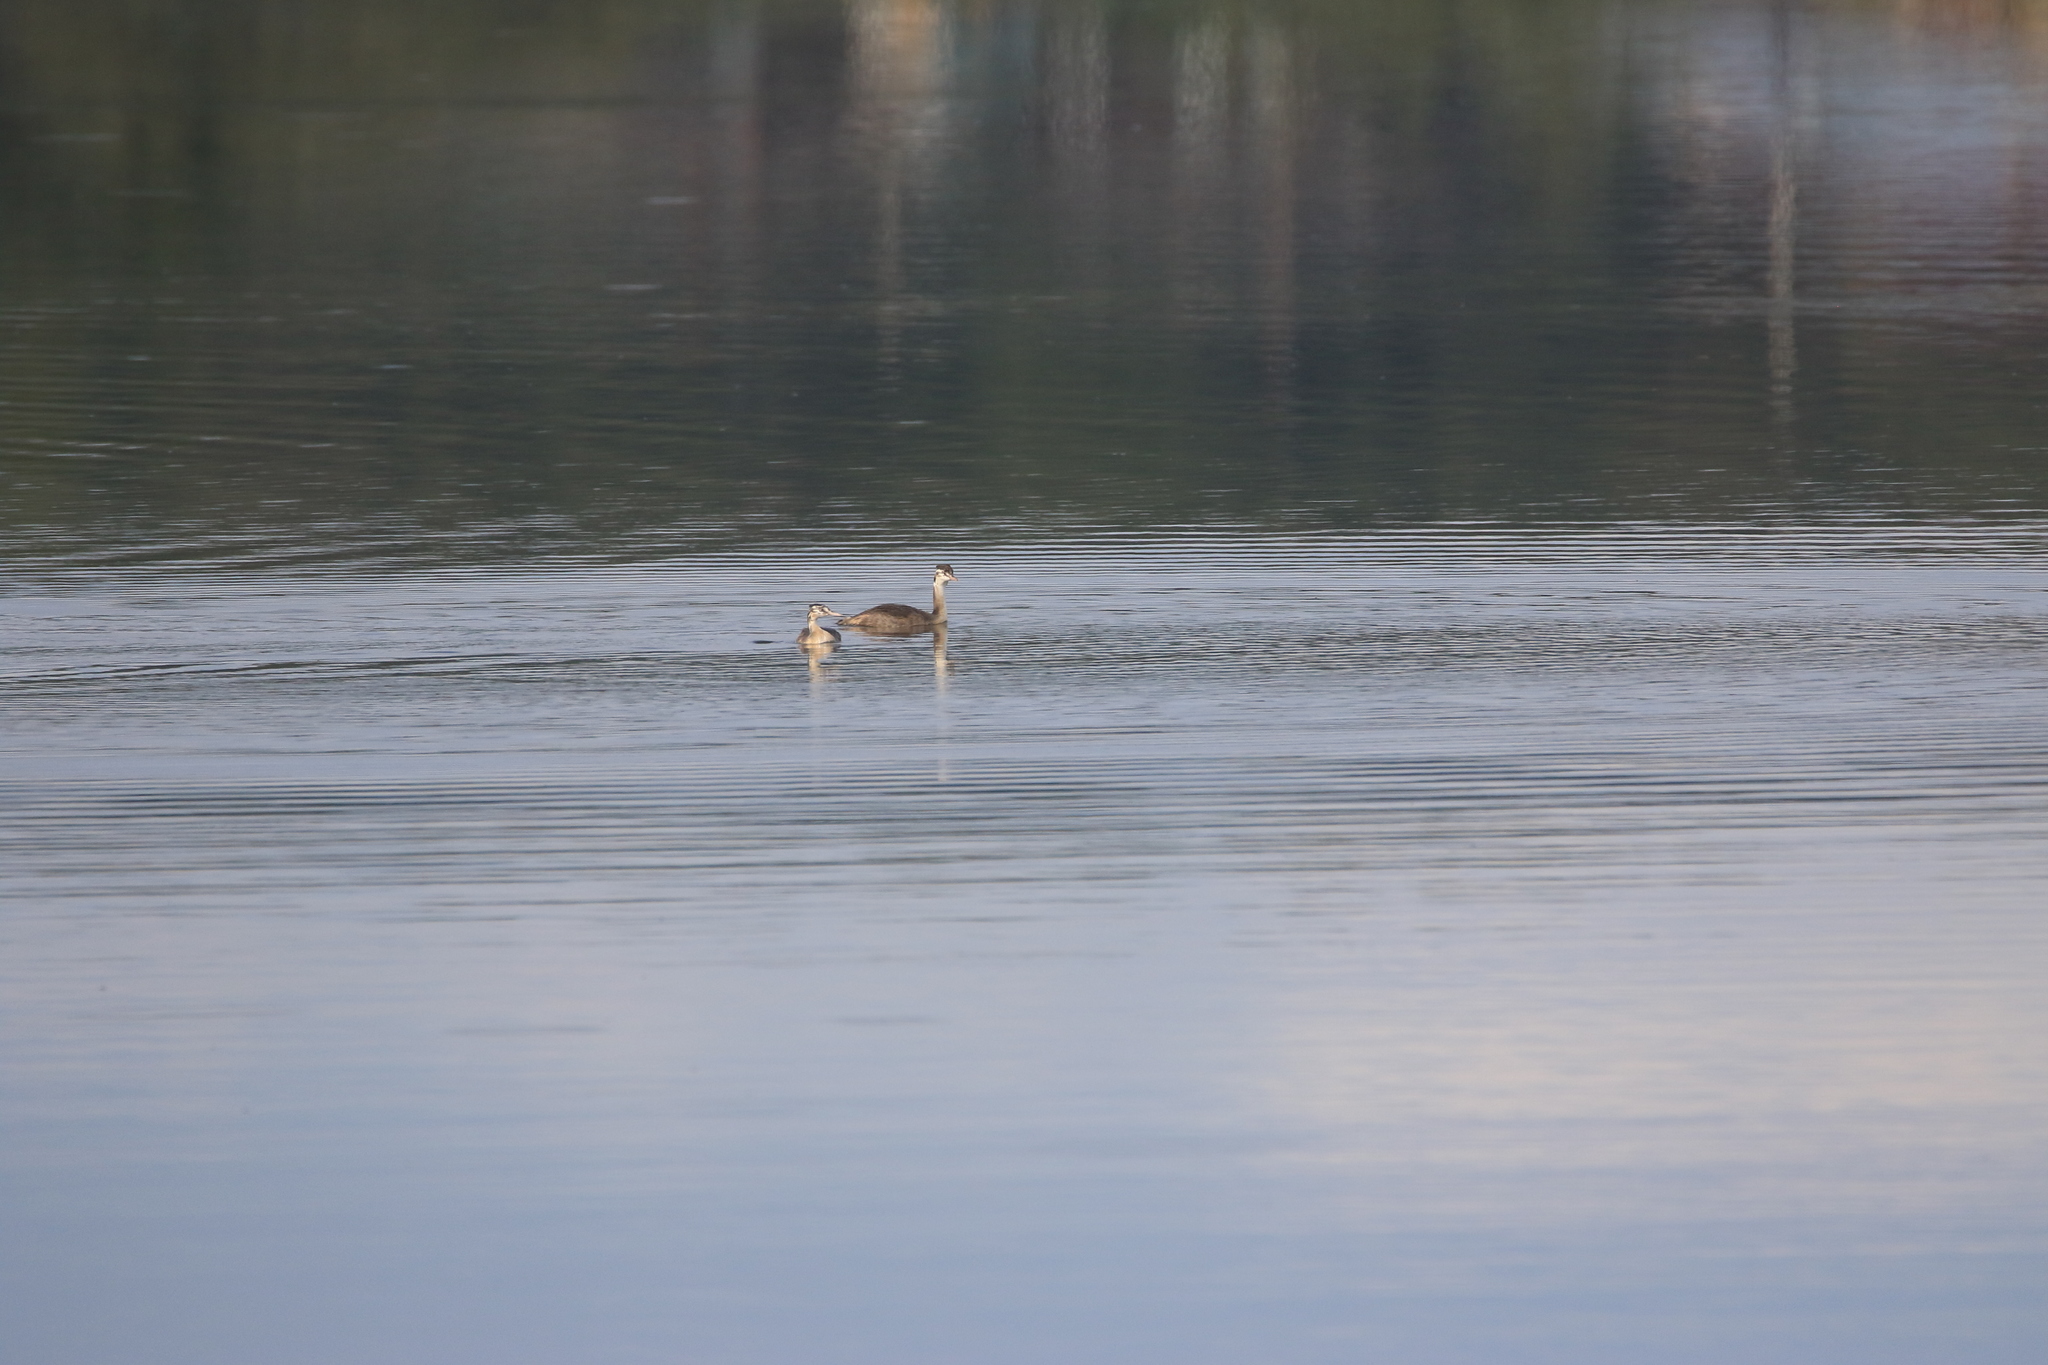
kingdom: Animalia
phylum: Chordata
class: Aves
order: Podicipediformes
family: Podicipedidae
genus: Podiceps
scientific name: Podiceps cristatus
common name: Great crested grebe
